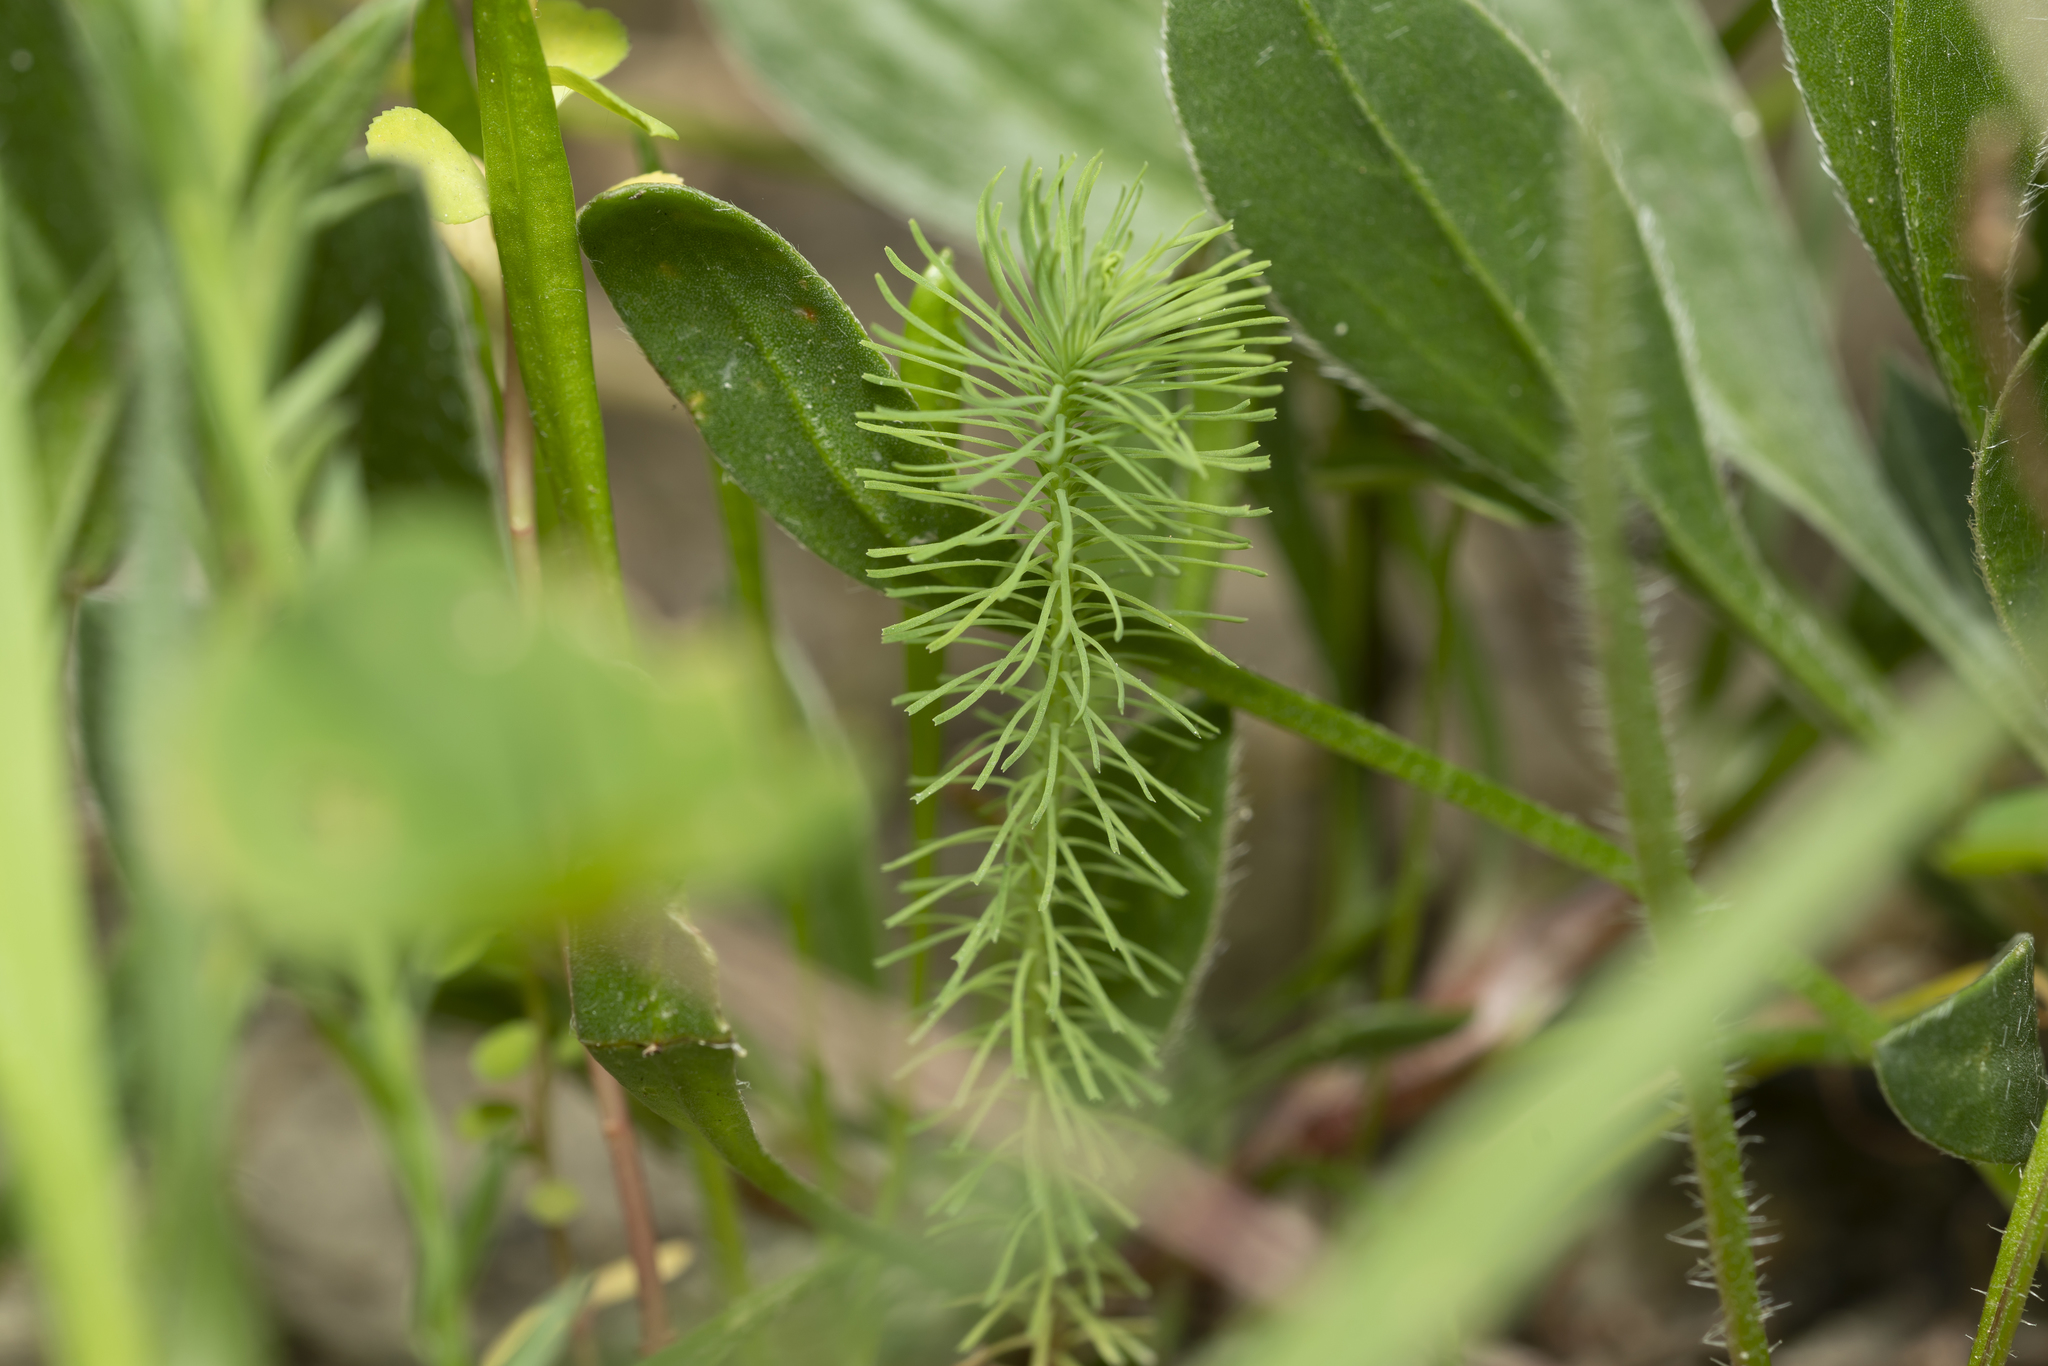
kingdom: Plantae
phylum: Tracheophyta
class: Magnoliopsida
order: Malpighiales
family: Euphorbiaceae
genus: Euphorbia
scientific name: Euphorbia aleppica
